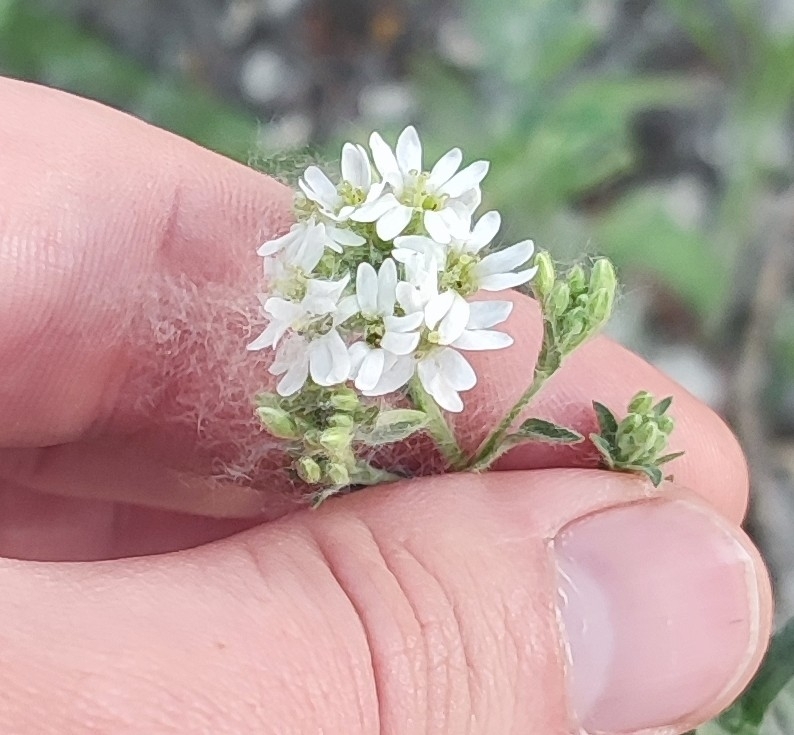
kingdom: Plantae
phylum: Tracheophyta
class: Magnoliopsida
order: Brassicales
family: Brassicaceae
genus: Berteroa
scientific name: Berteroa incana
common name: Hoary alison
